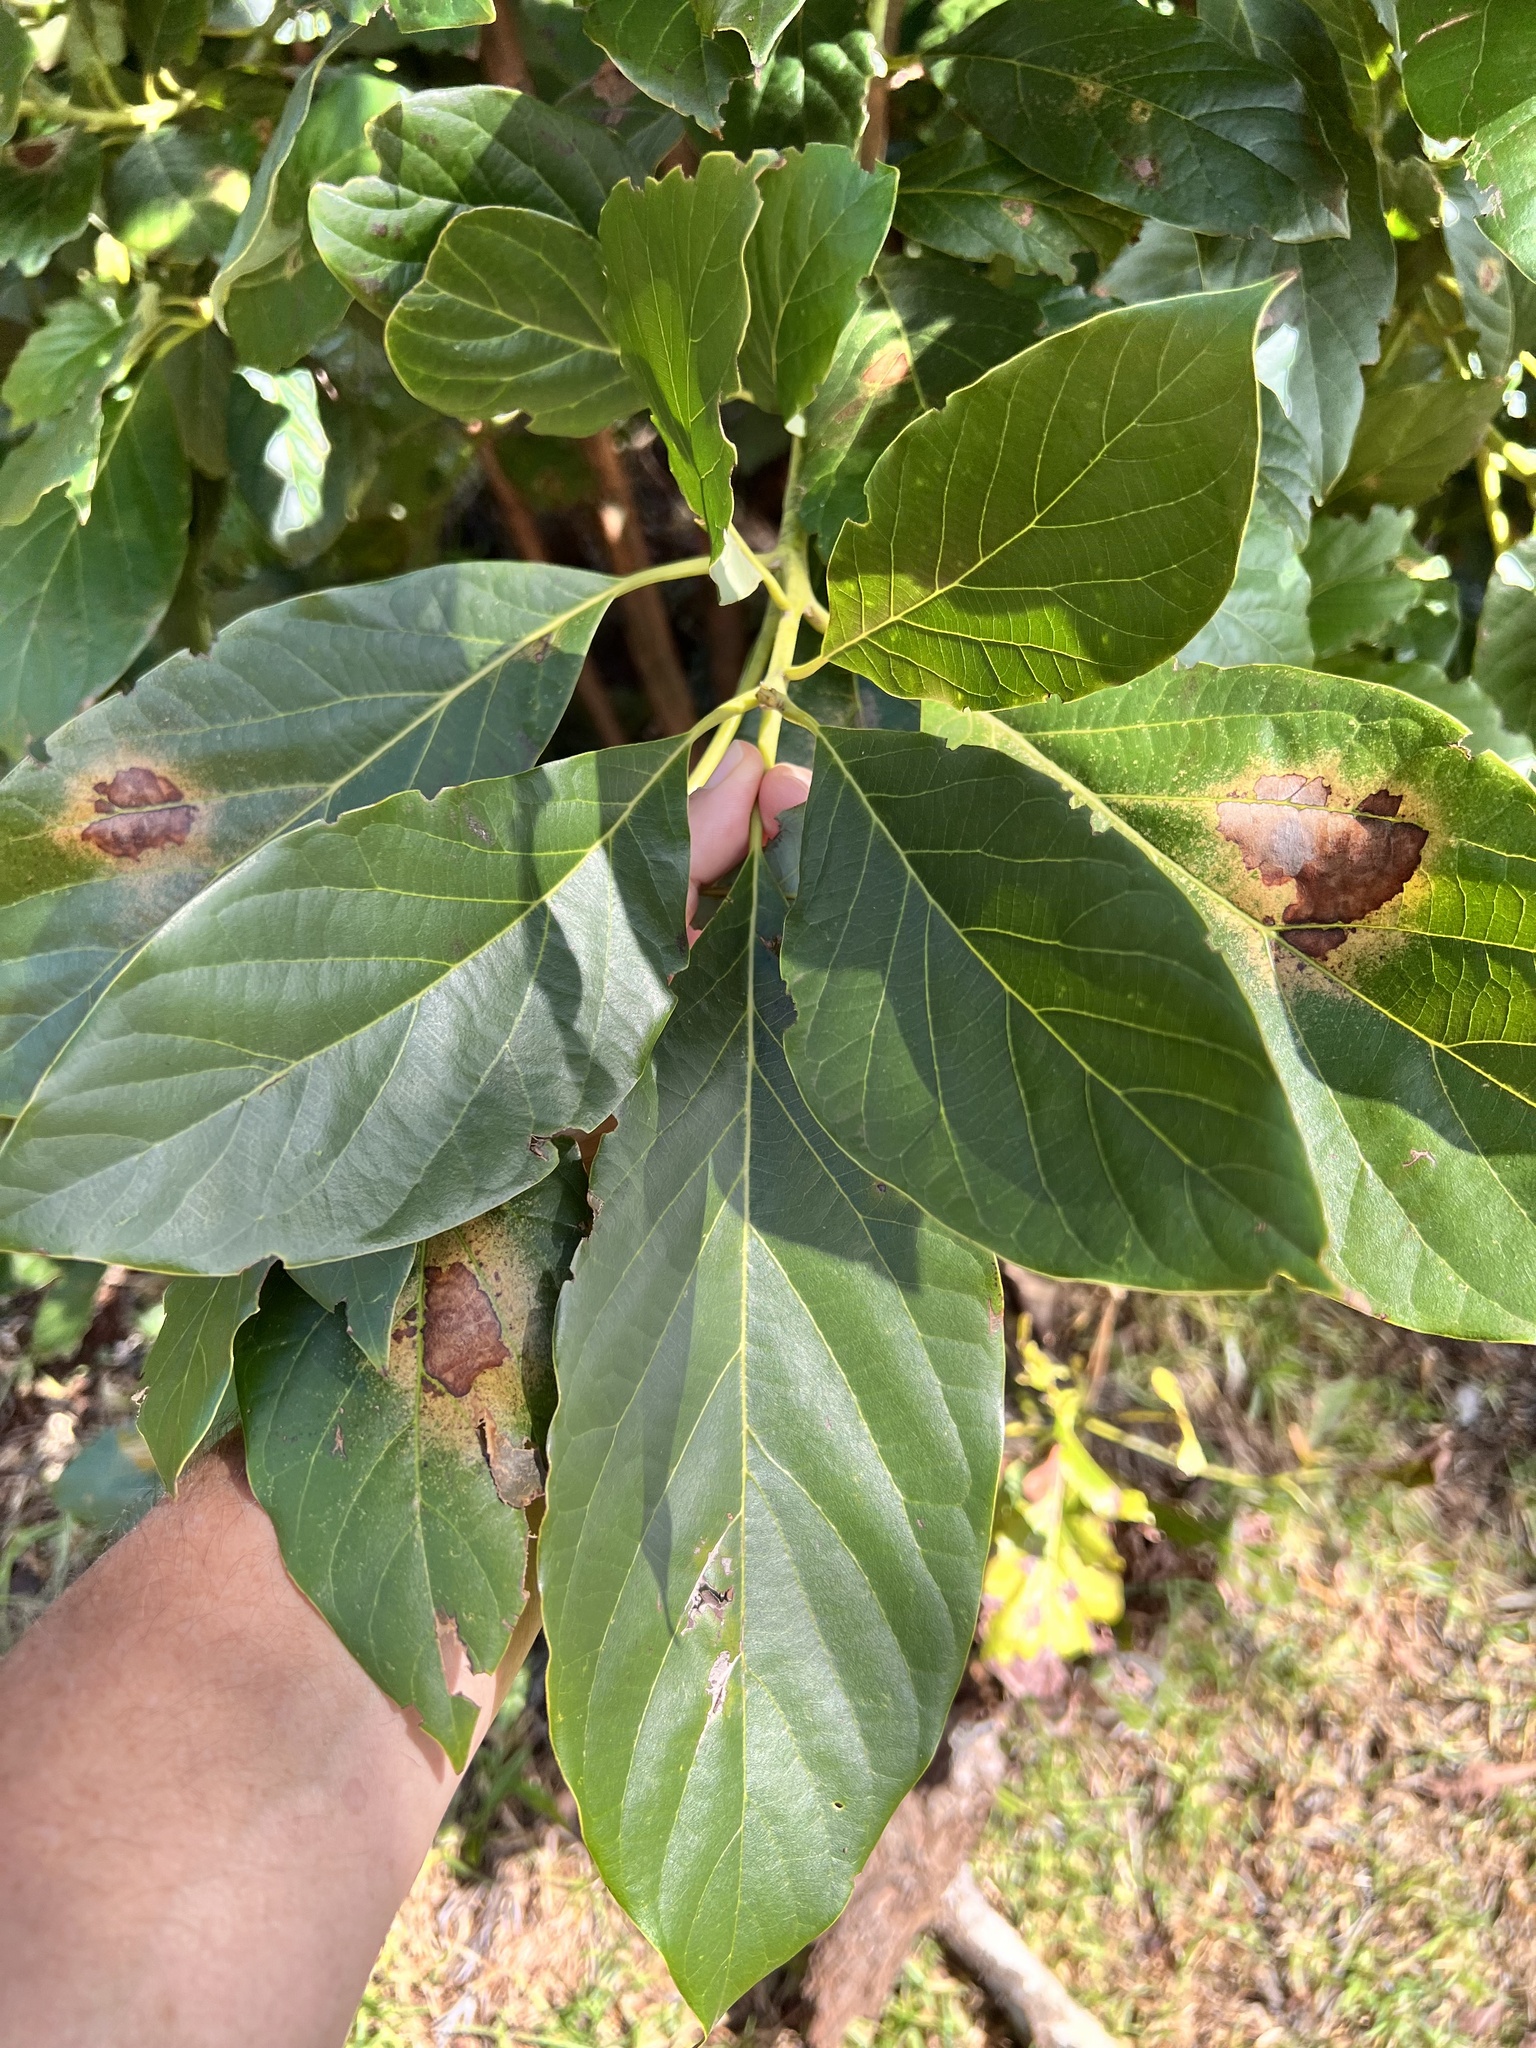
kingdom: Plantae
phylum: Tracheophyta
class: Magnoliopsida
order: Laurales
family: Lauraceae
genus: Persea
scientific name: Persea americana
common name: Avocado
